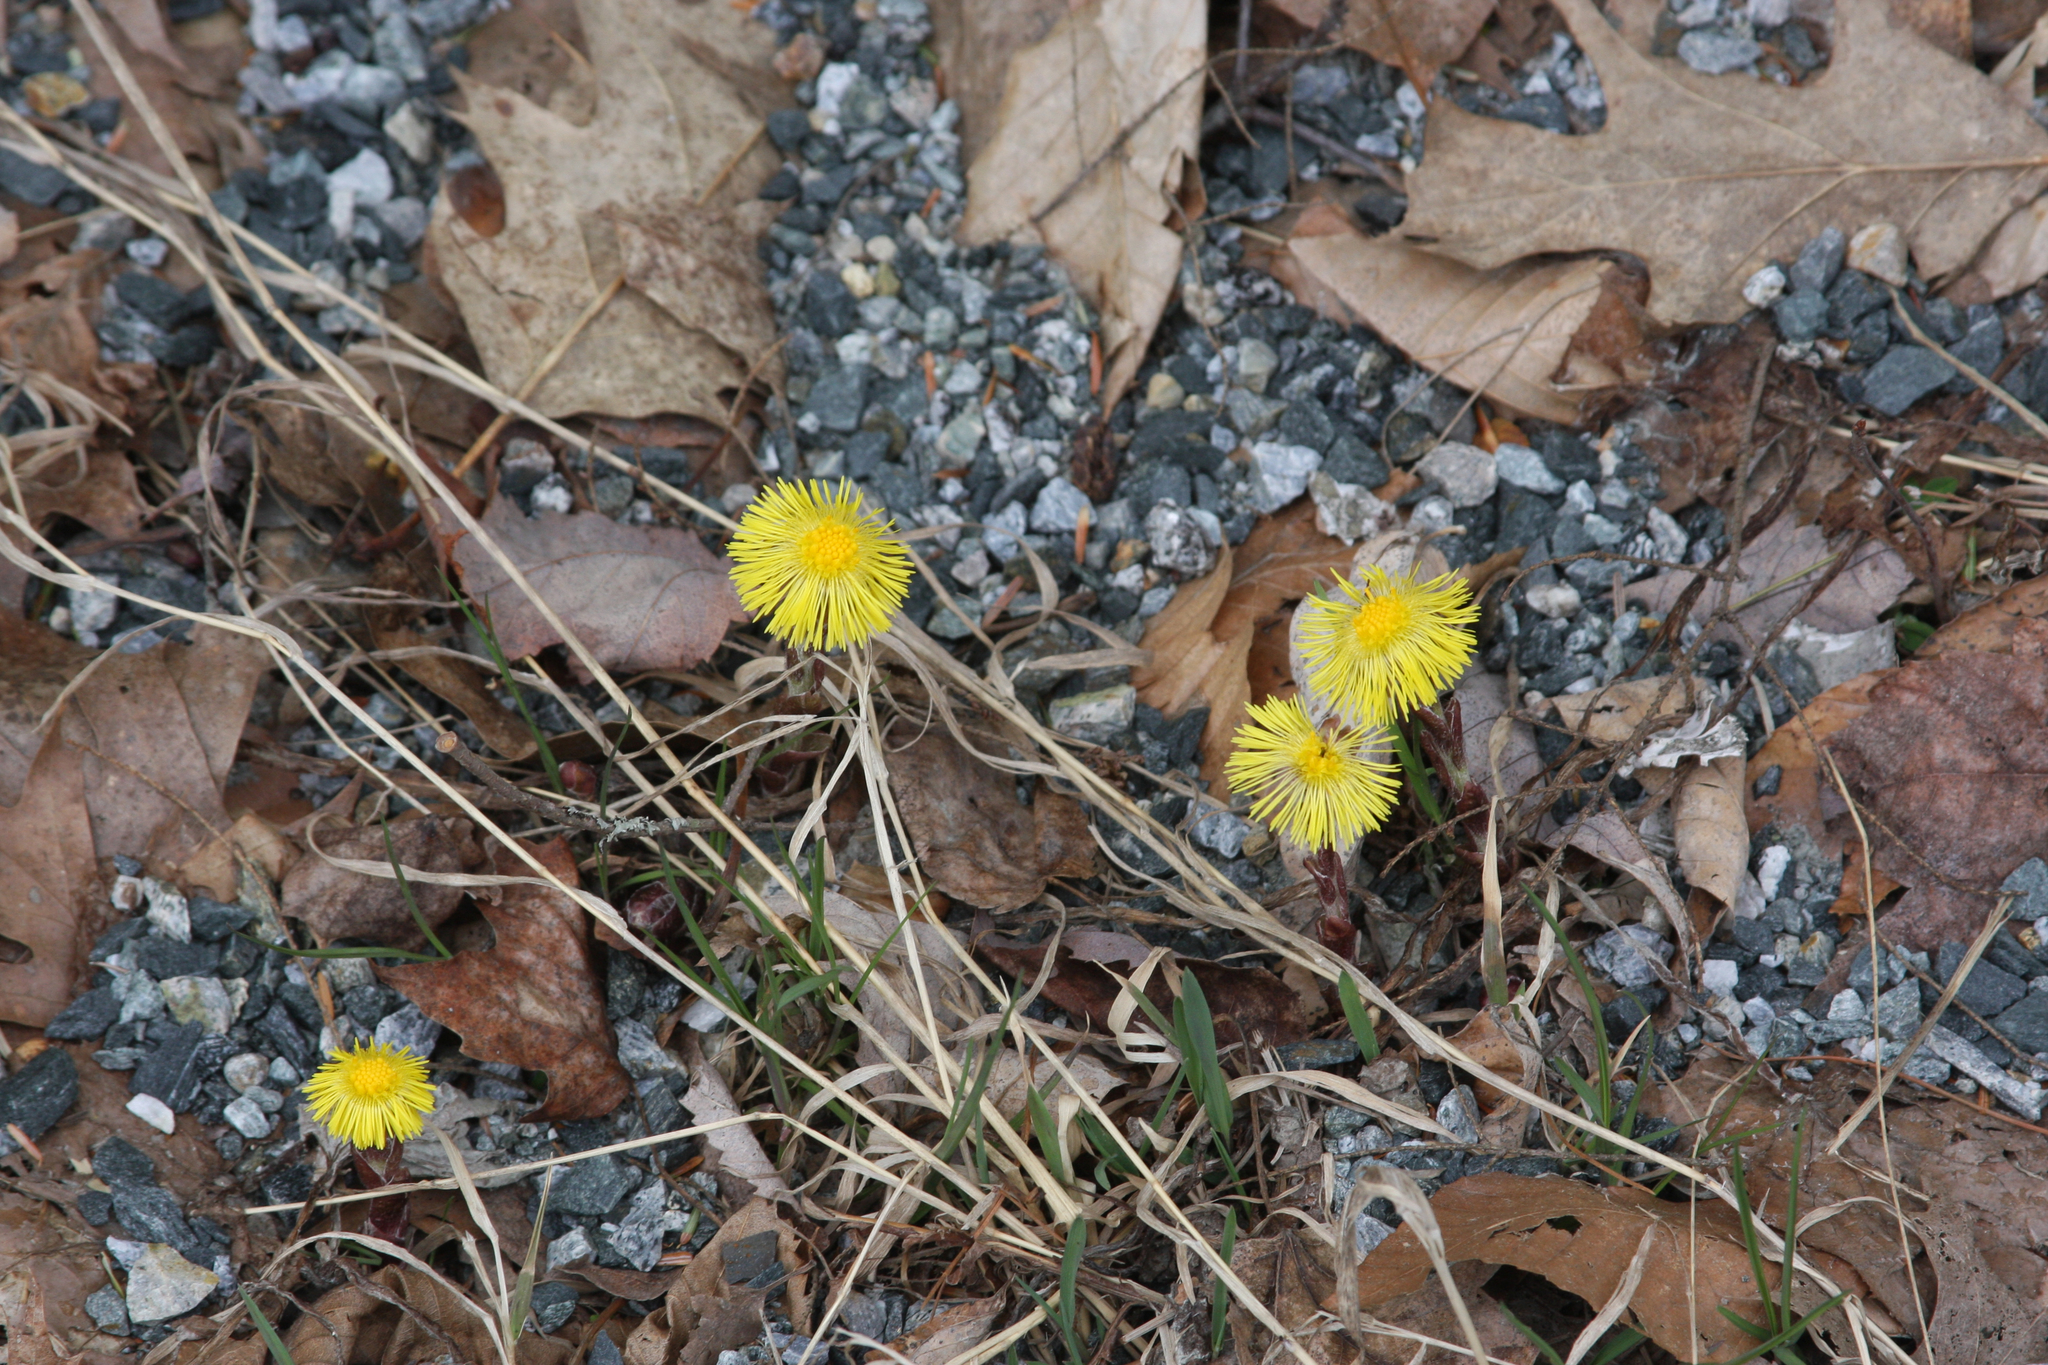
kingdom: Plantae
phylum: Tracheophyta
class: Magnoliopsida
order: Asterales
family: Asteraceae
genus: Tussilago
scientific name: Tussilago farfara
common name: Coltsfoot
